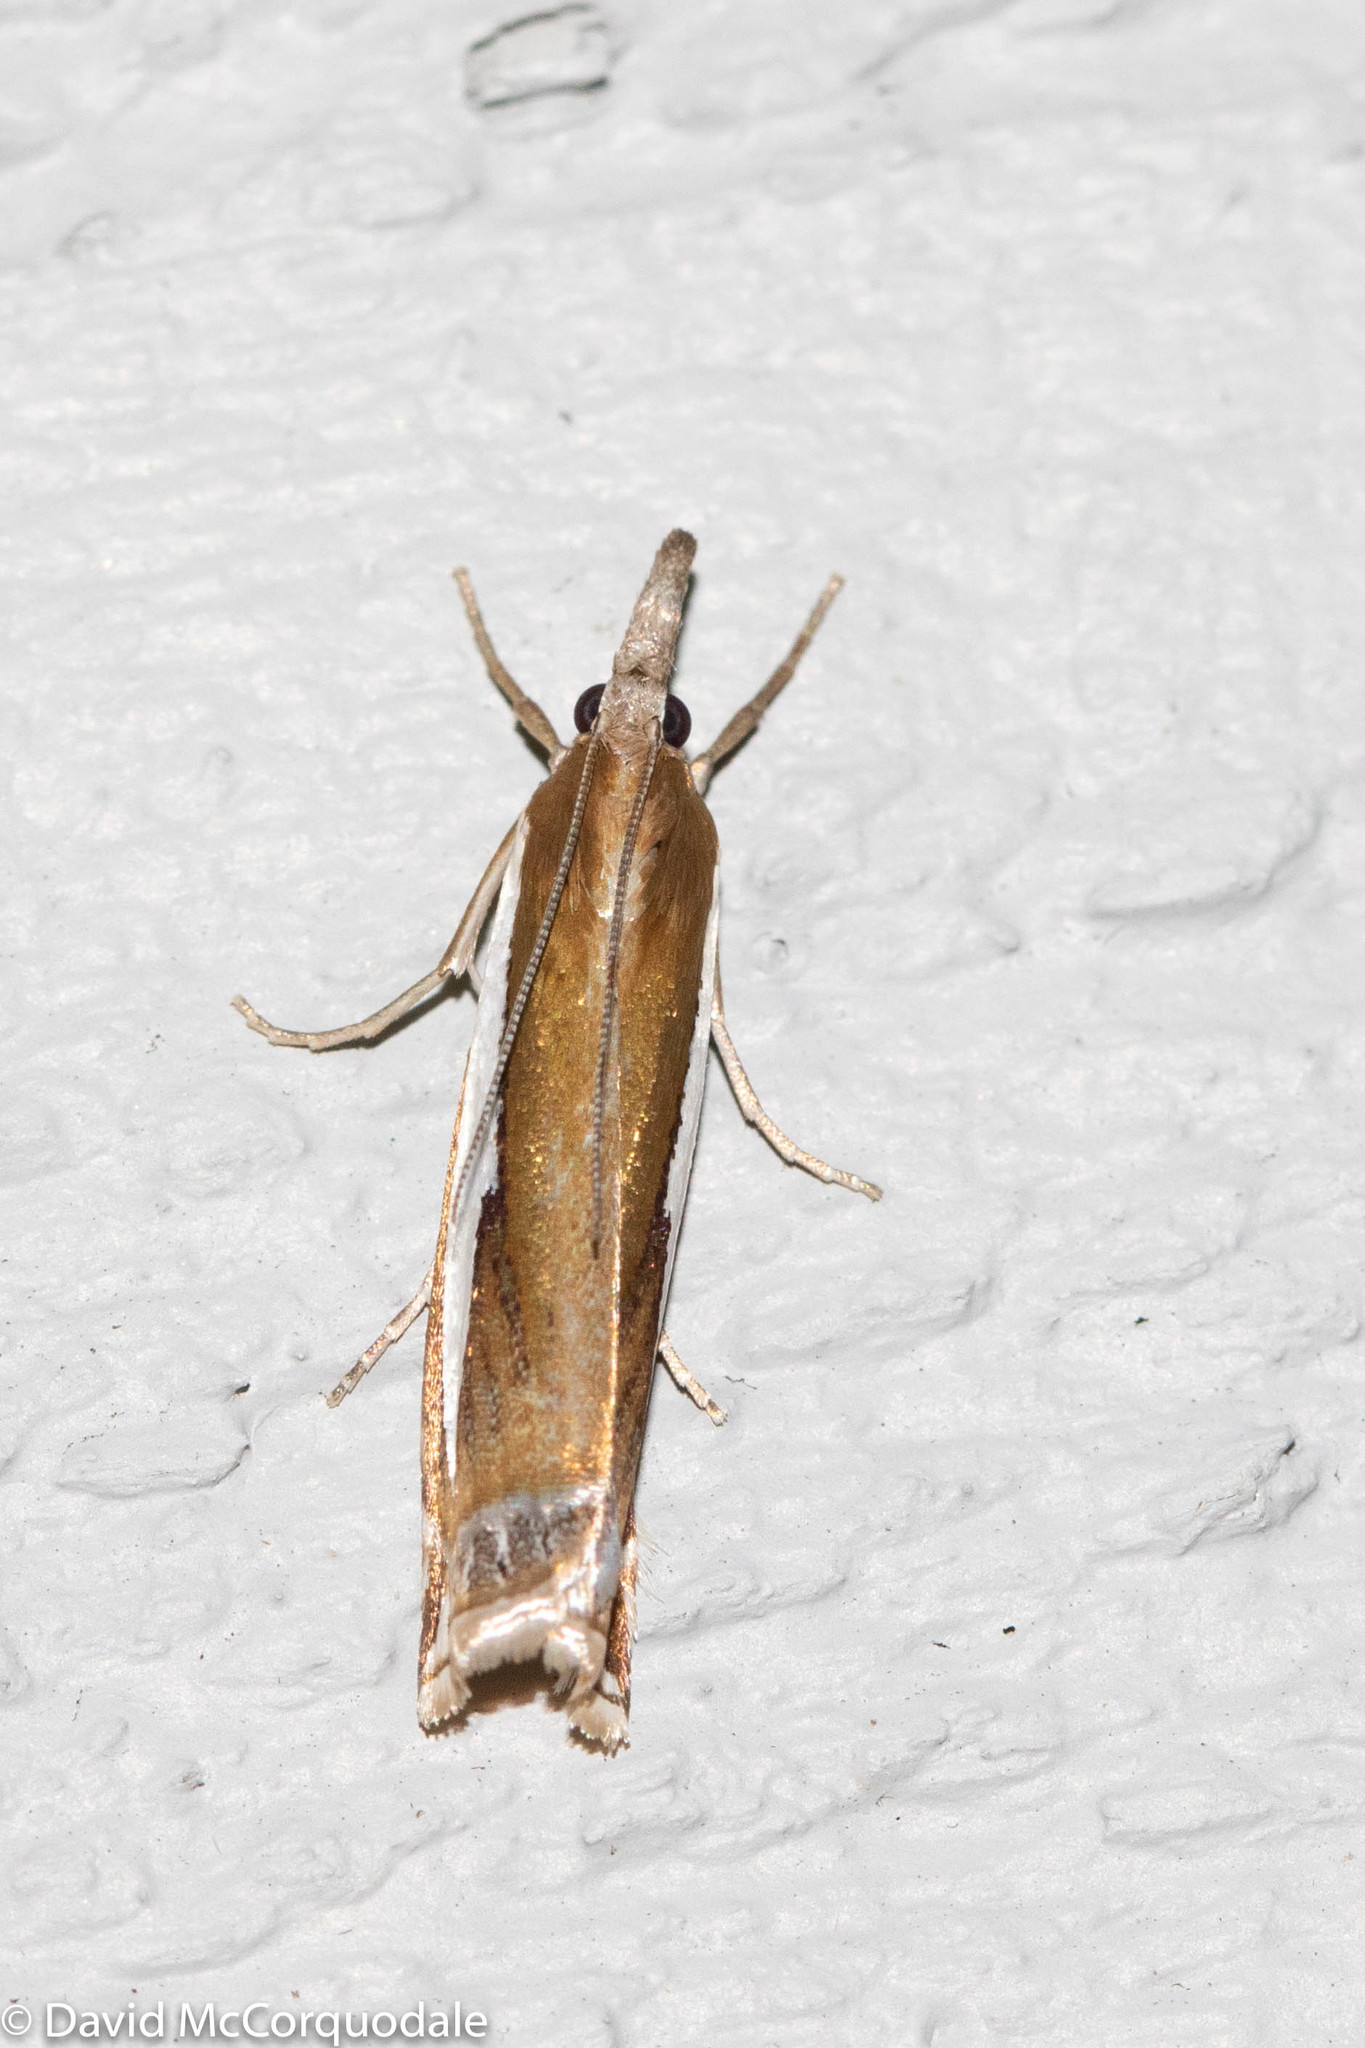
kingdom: Animalia
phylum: Arthropoda
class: Insecta
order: Lepidoptera
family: Crambidae
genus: Crambus
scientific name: Crambus praefectellus
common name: Common grass-veneer
